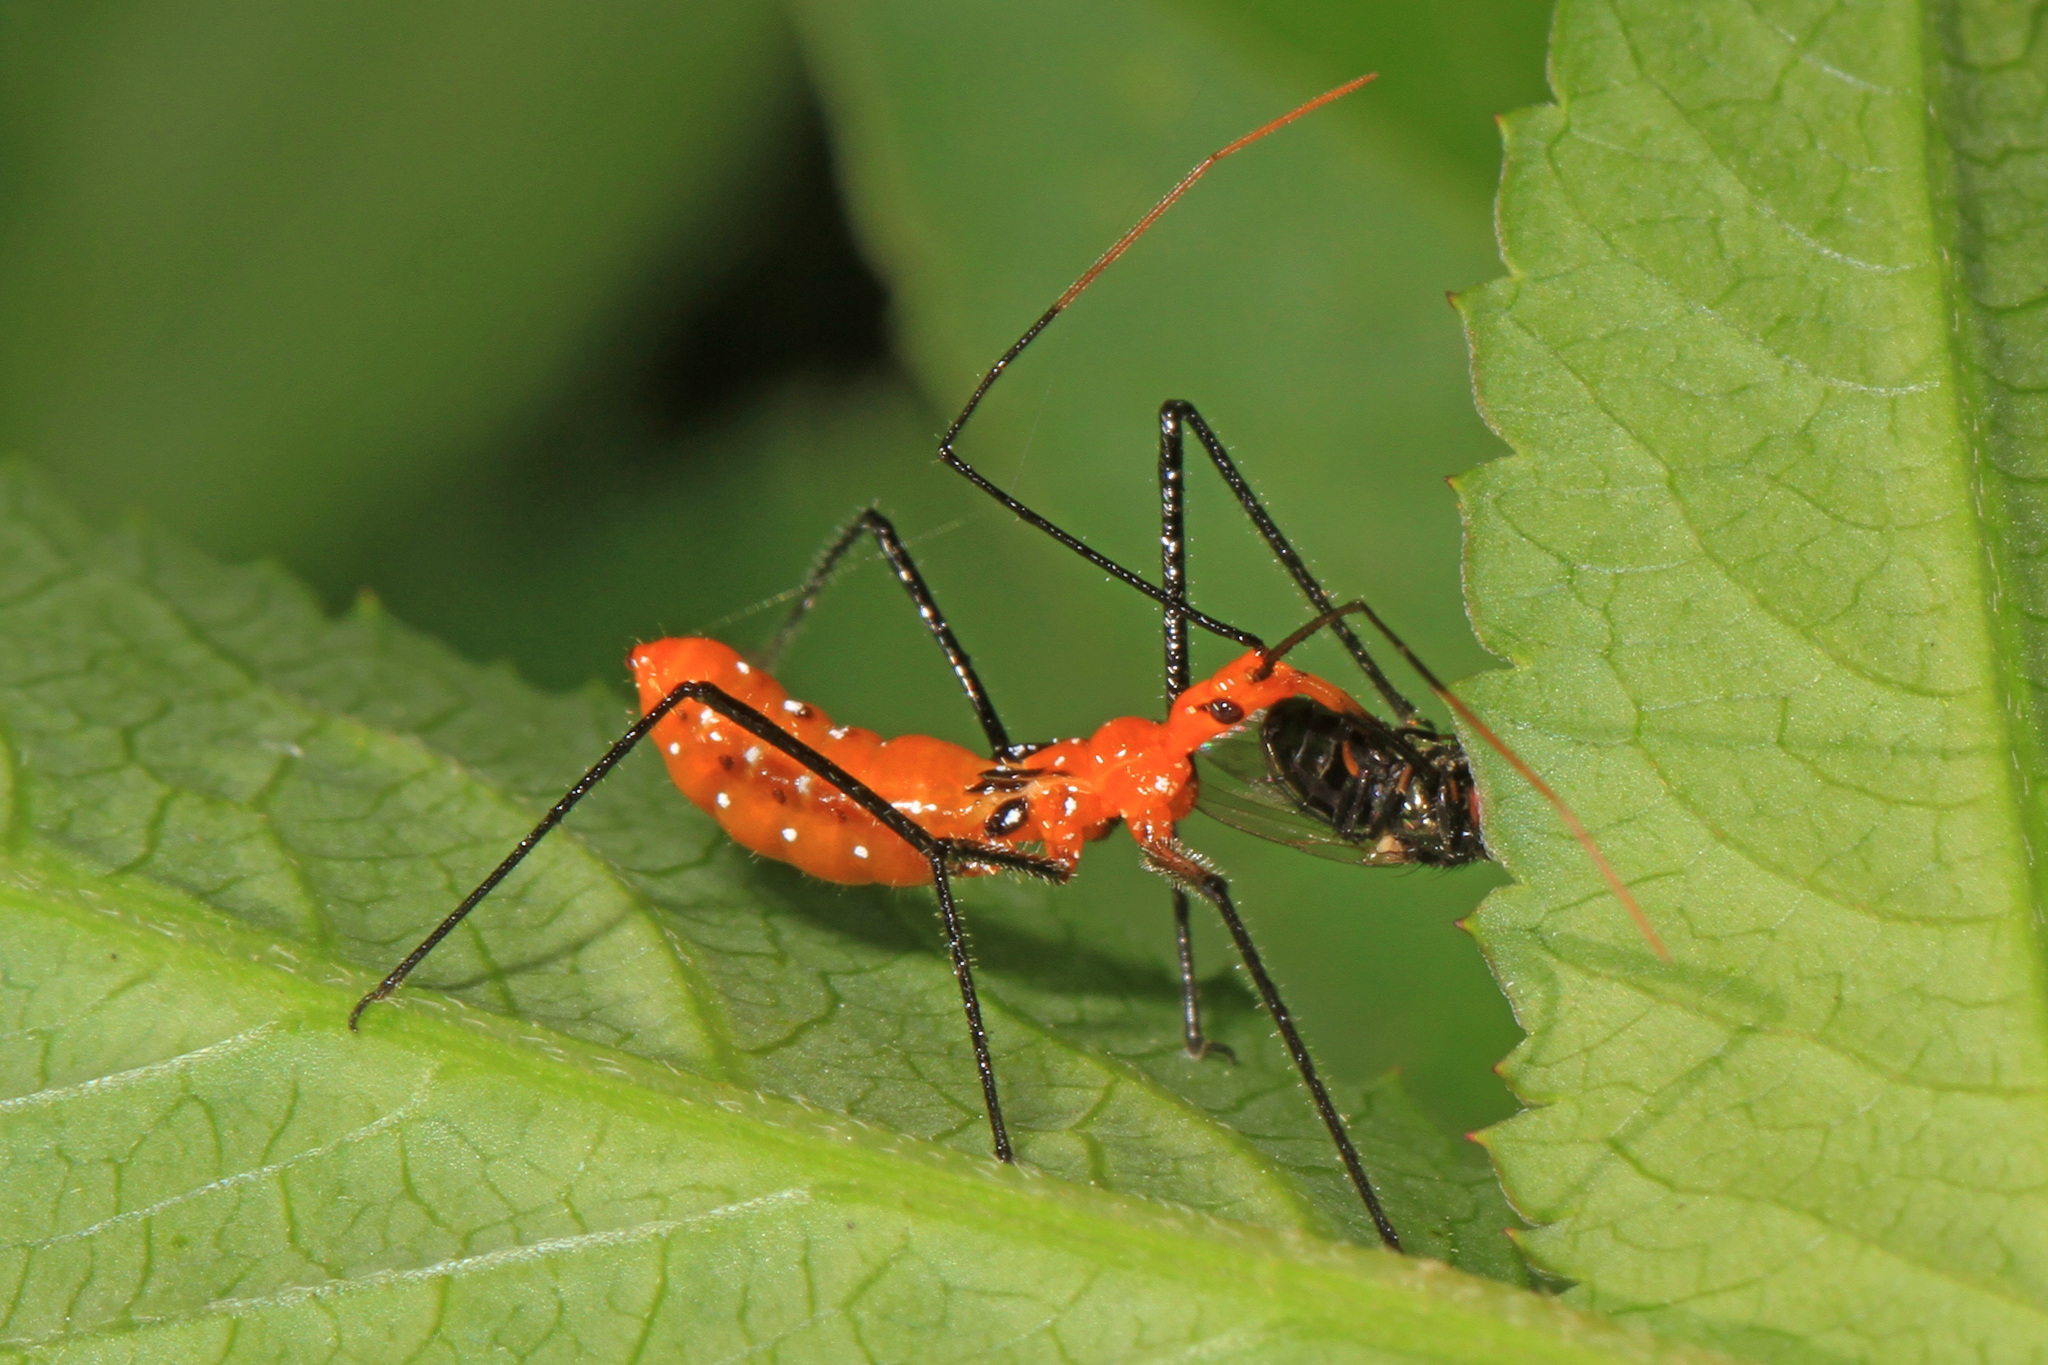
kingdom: Animalia
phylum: Arthropoda
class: Insecta
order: Hemiptera
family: Reduviidae
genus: Zelus
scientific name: Zelus longipes
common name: Milkweed assassin bug
